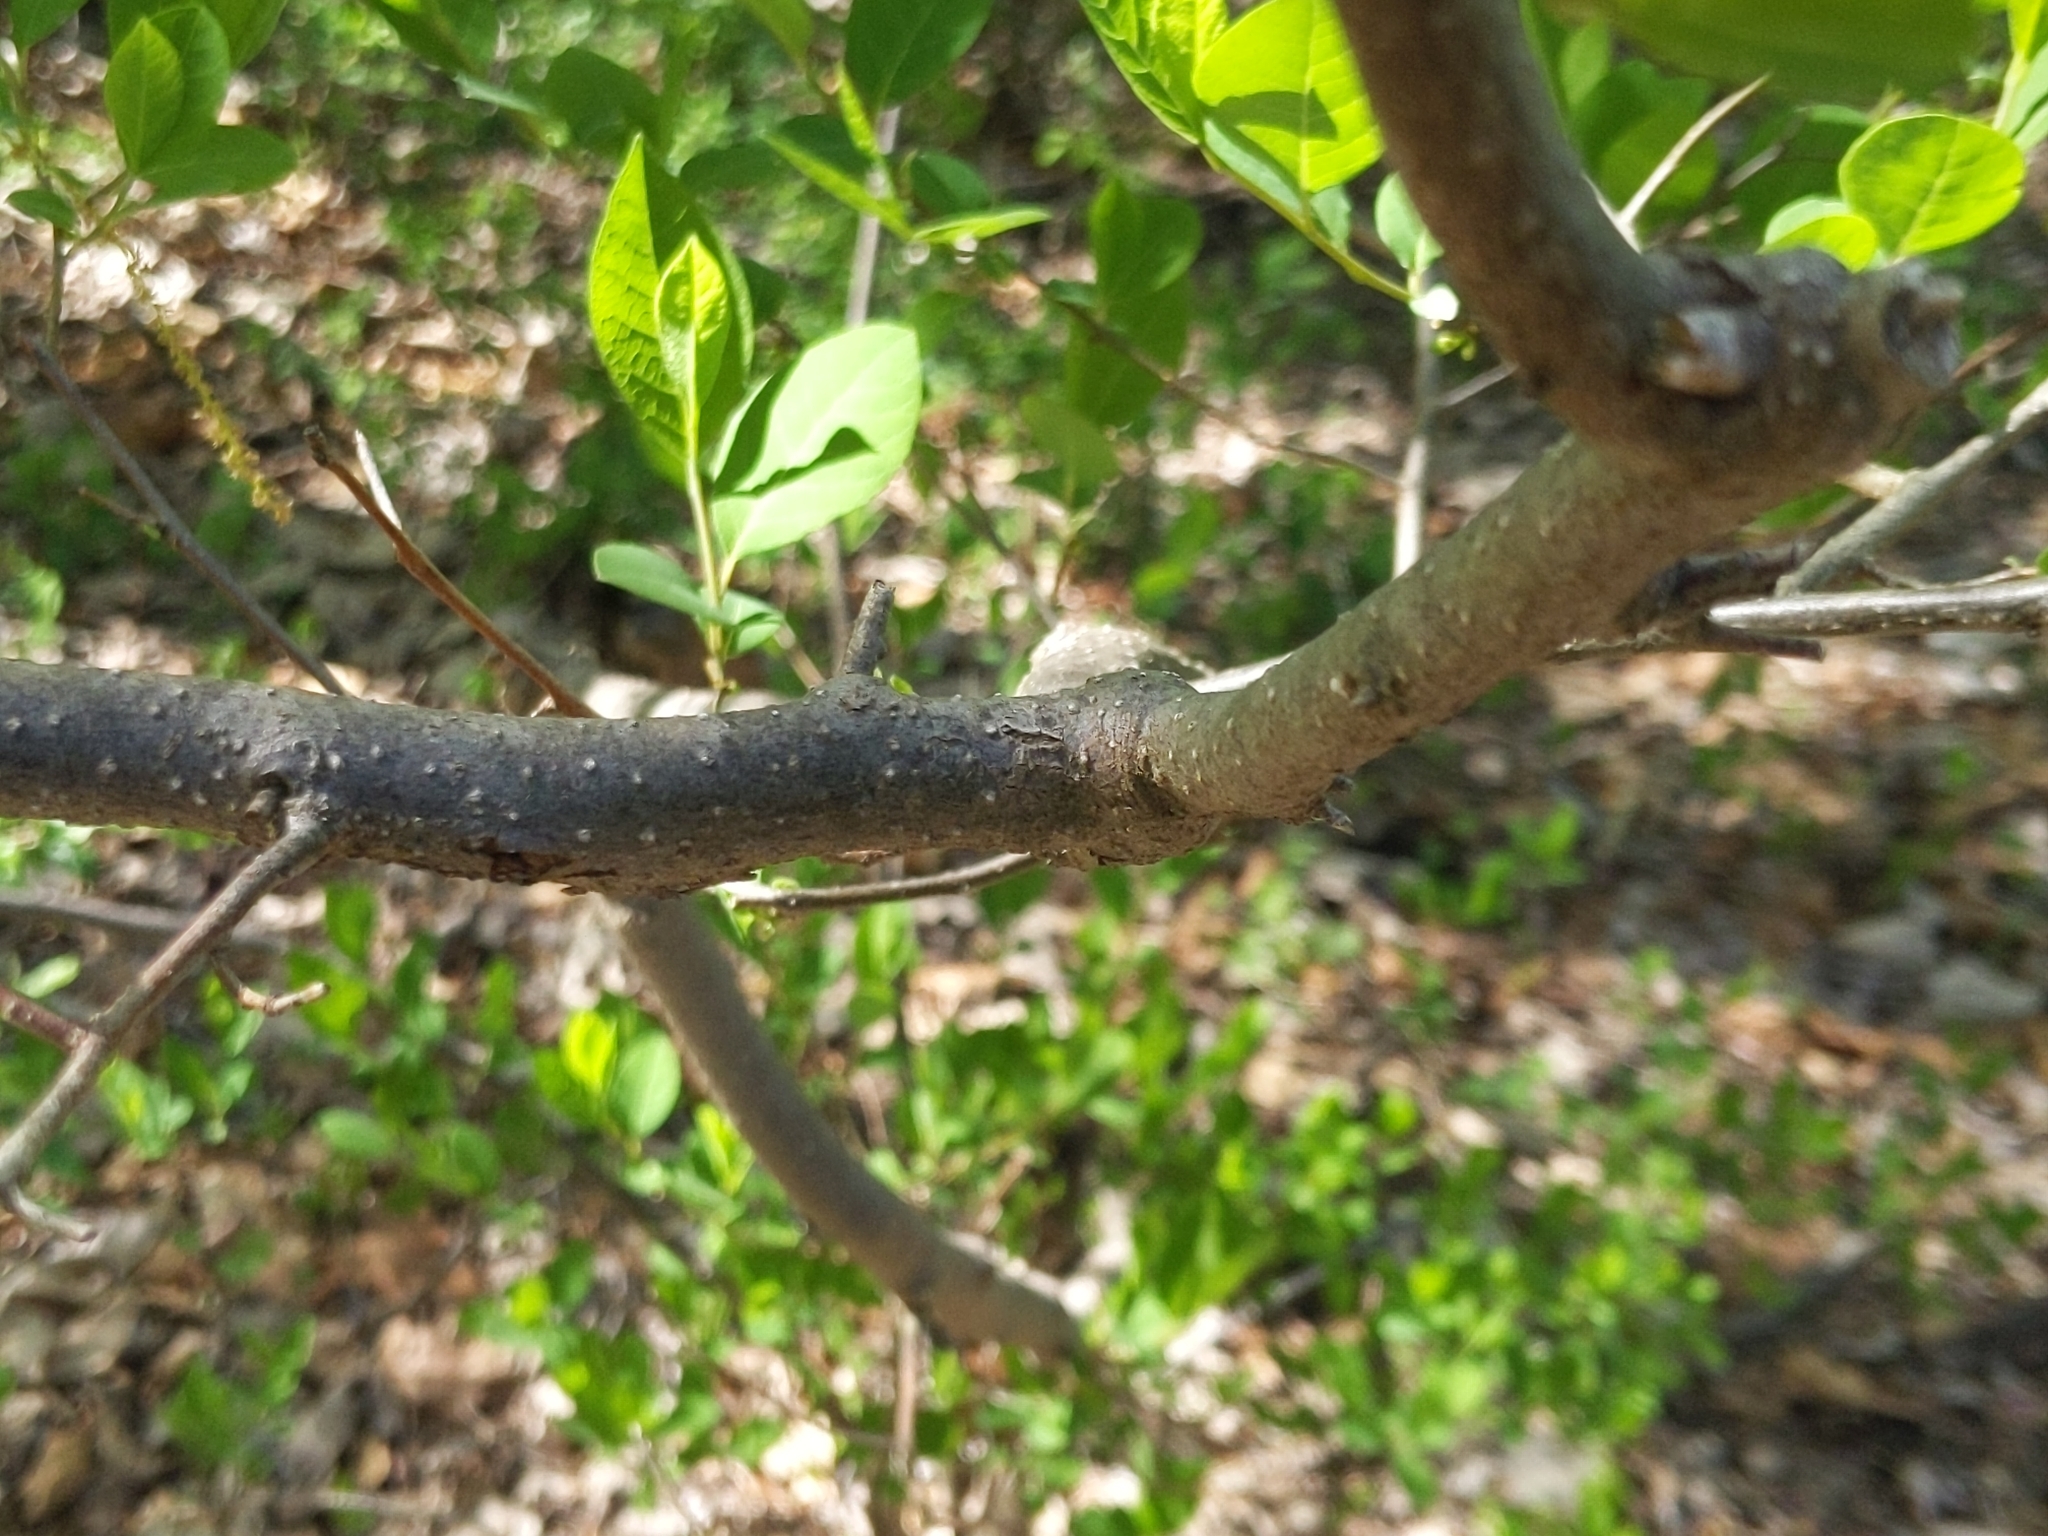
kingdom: Plantae
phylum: Tracheophyta
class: Magnoliopsida
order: Laurales
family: Lauraceae
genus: Lindera
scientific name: Lindera benzoin
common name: Spicebush
